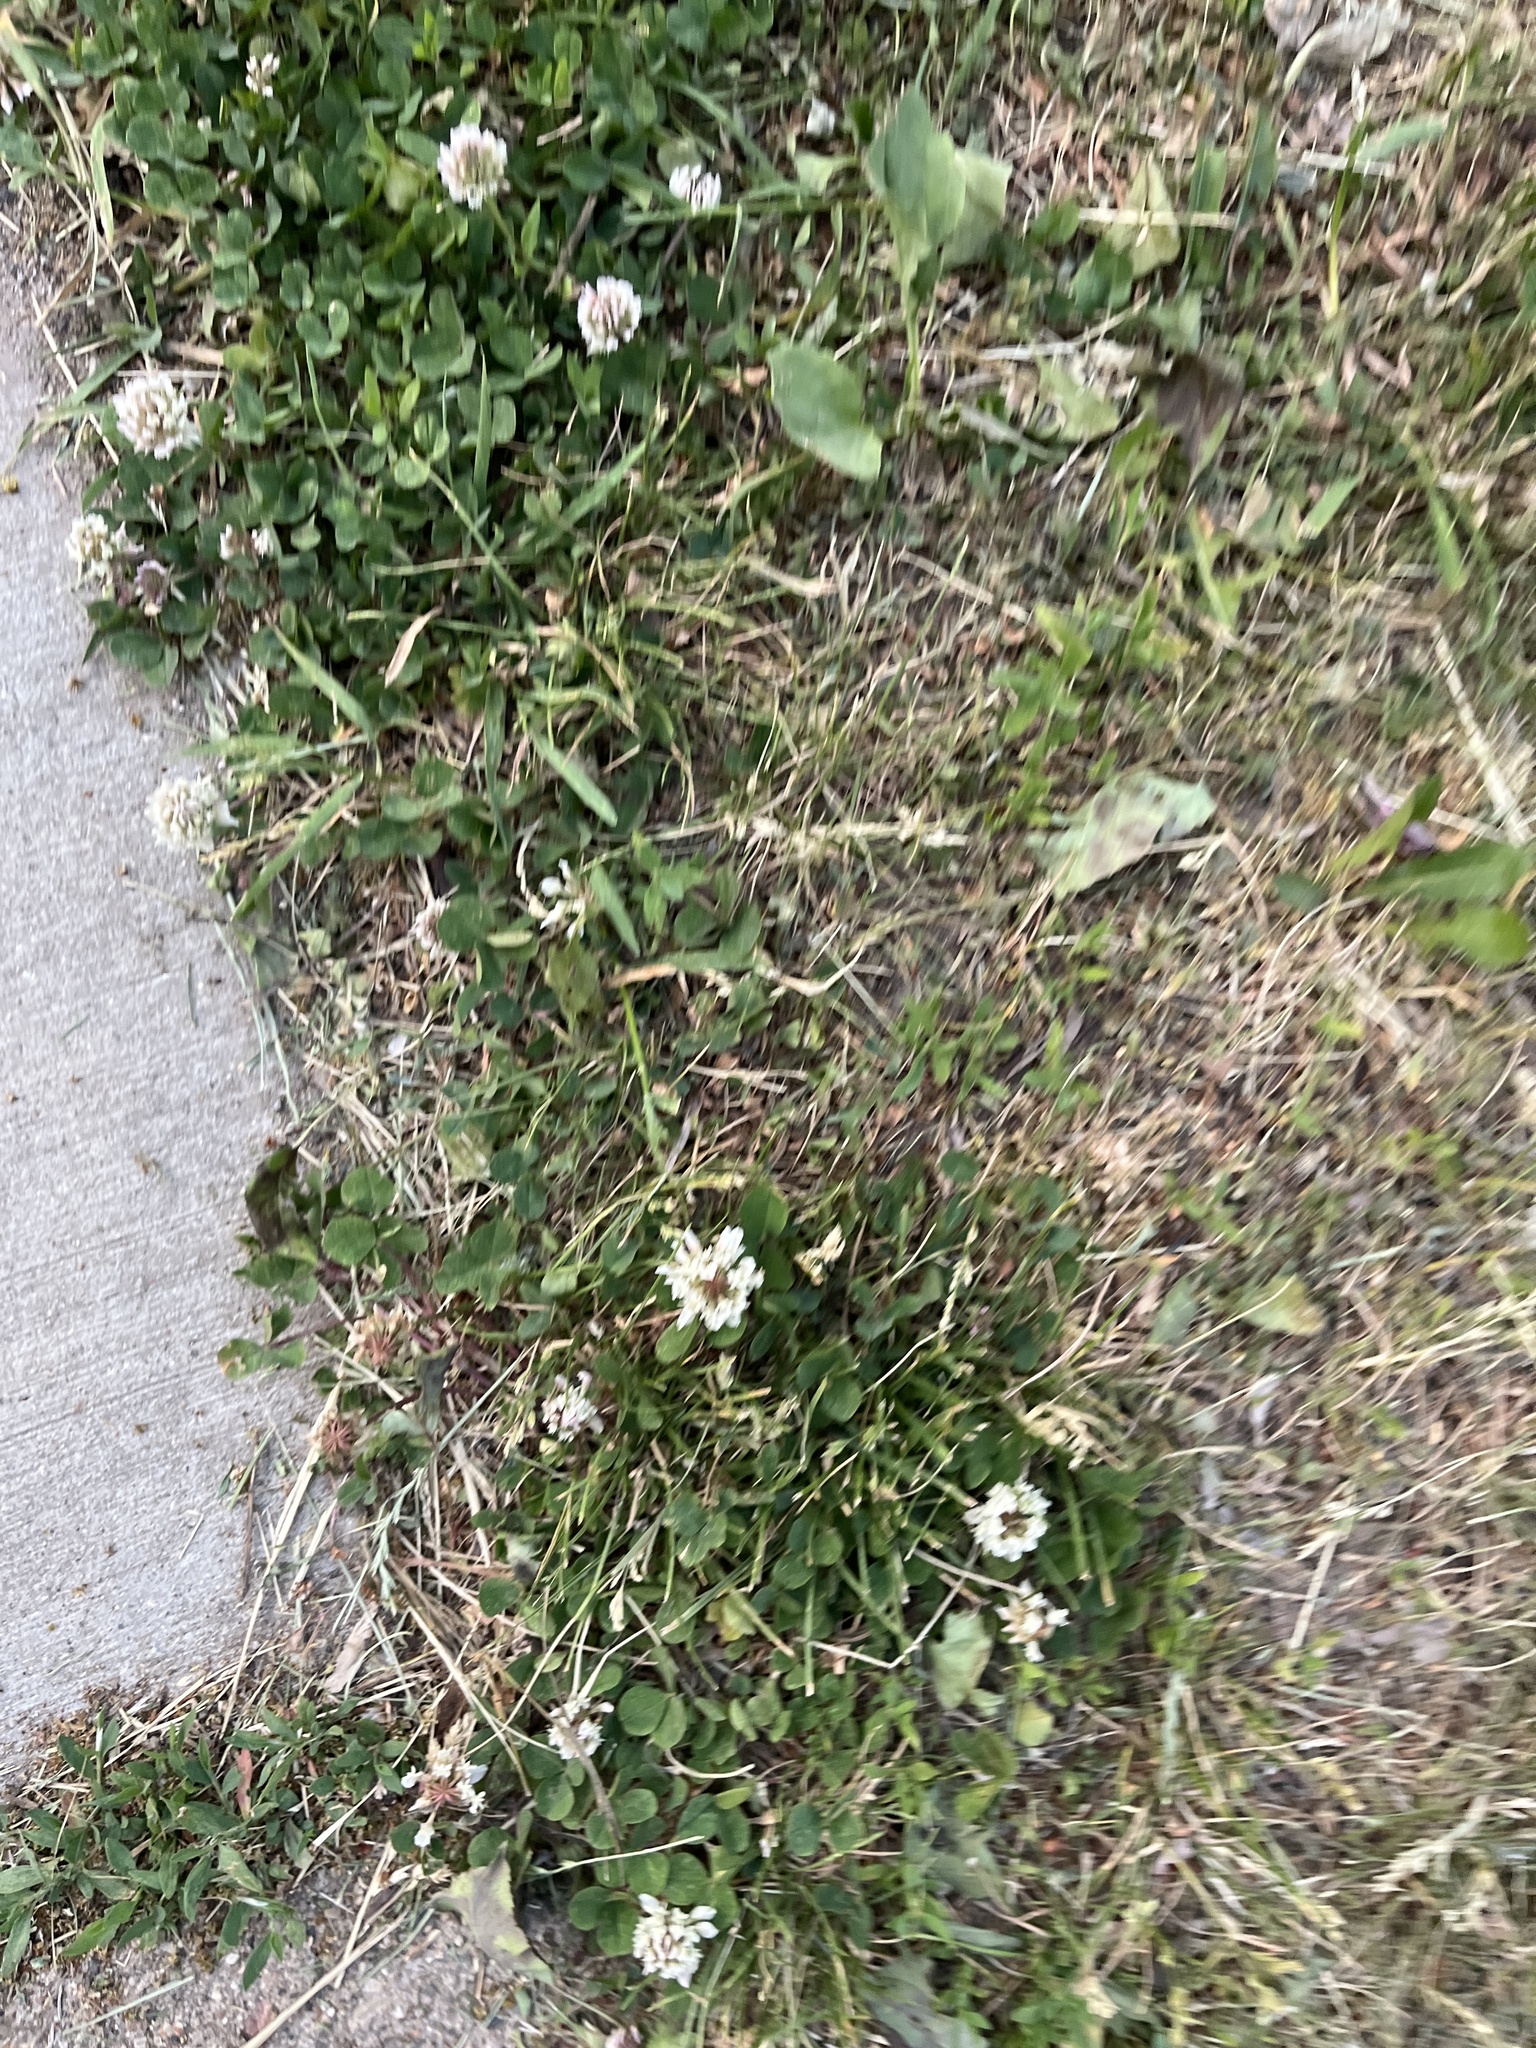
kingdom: Plantae
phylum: Tracheophyta
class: Magnoliopsida
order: Fabales
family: Fabaceae
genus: Trifolium
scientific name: Trifolium repens
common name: White clover
